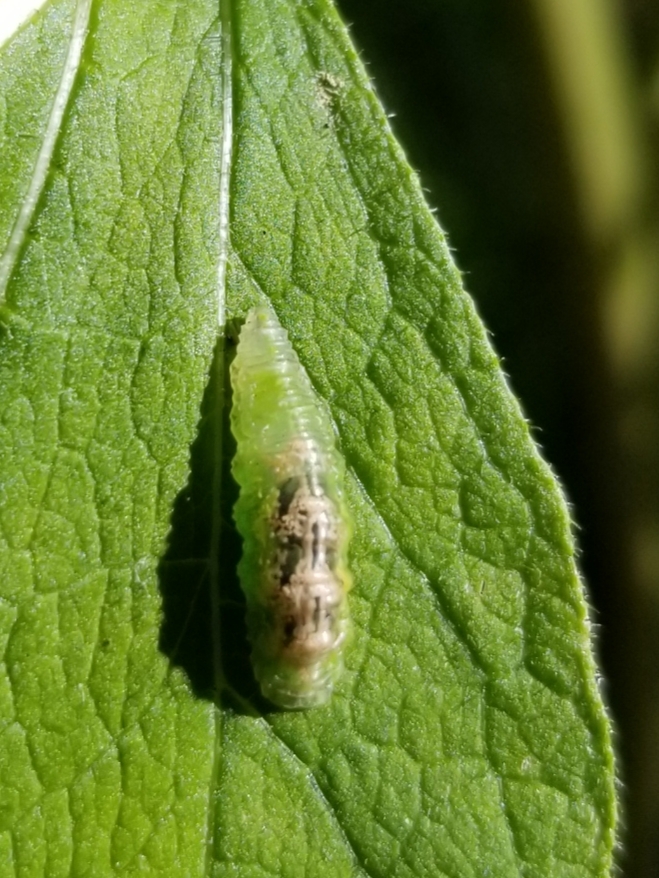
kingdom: Animalia
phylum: Arthropoda
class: Insecta
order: Diptera
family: Syrphidae
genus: Eupeodes
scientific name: Eupeodes pomus
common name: Short-tailed aphideater
